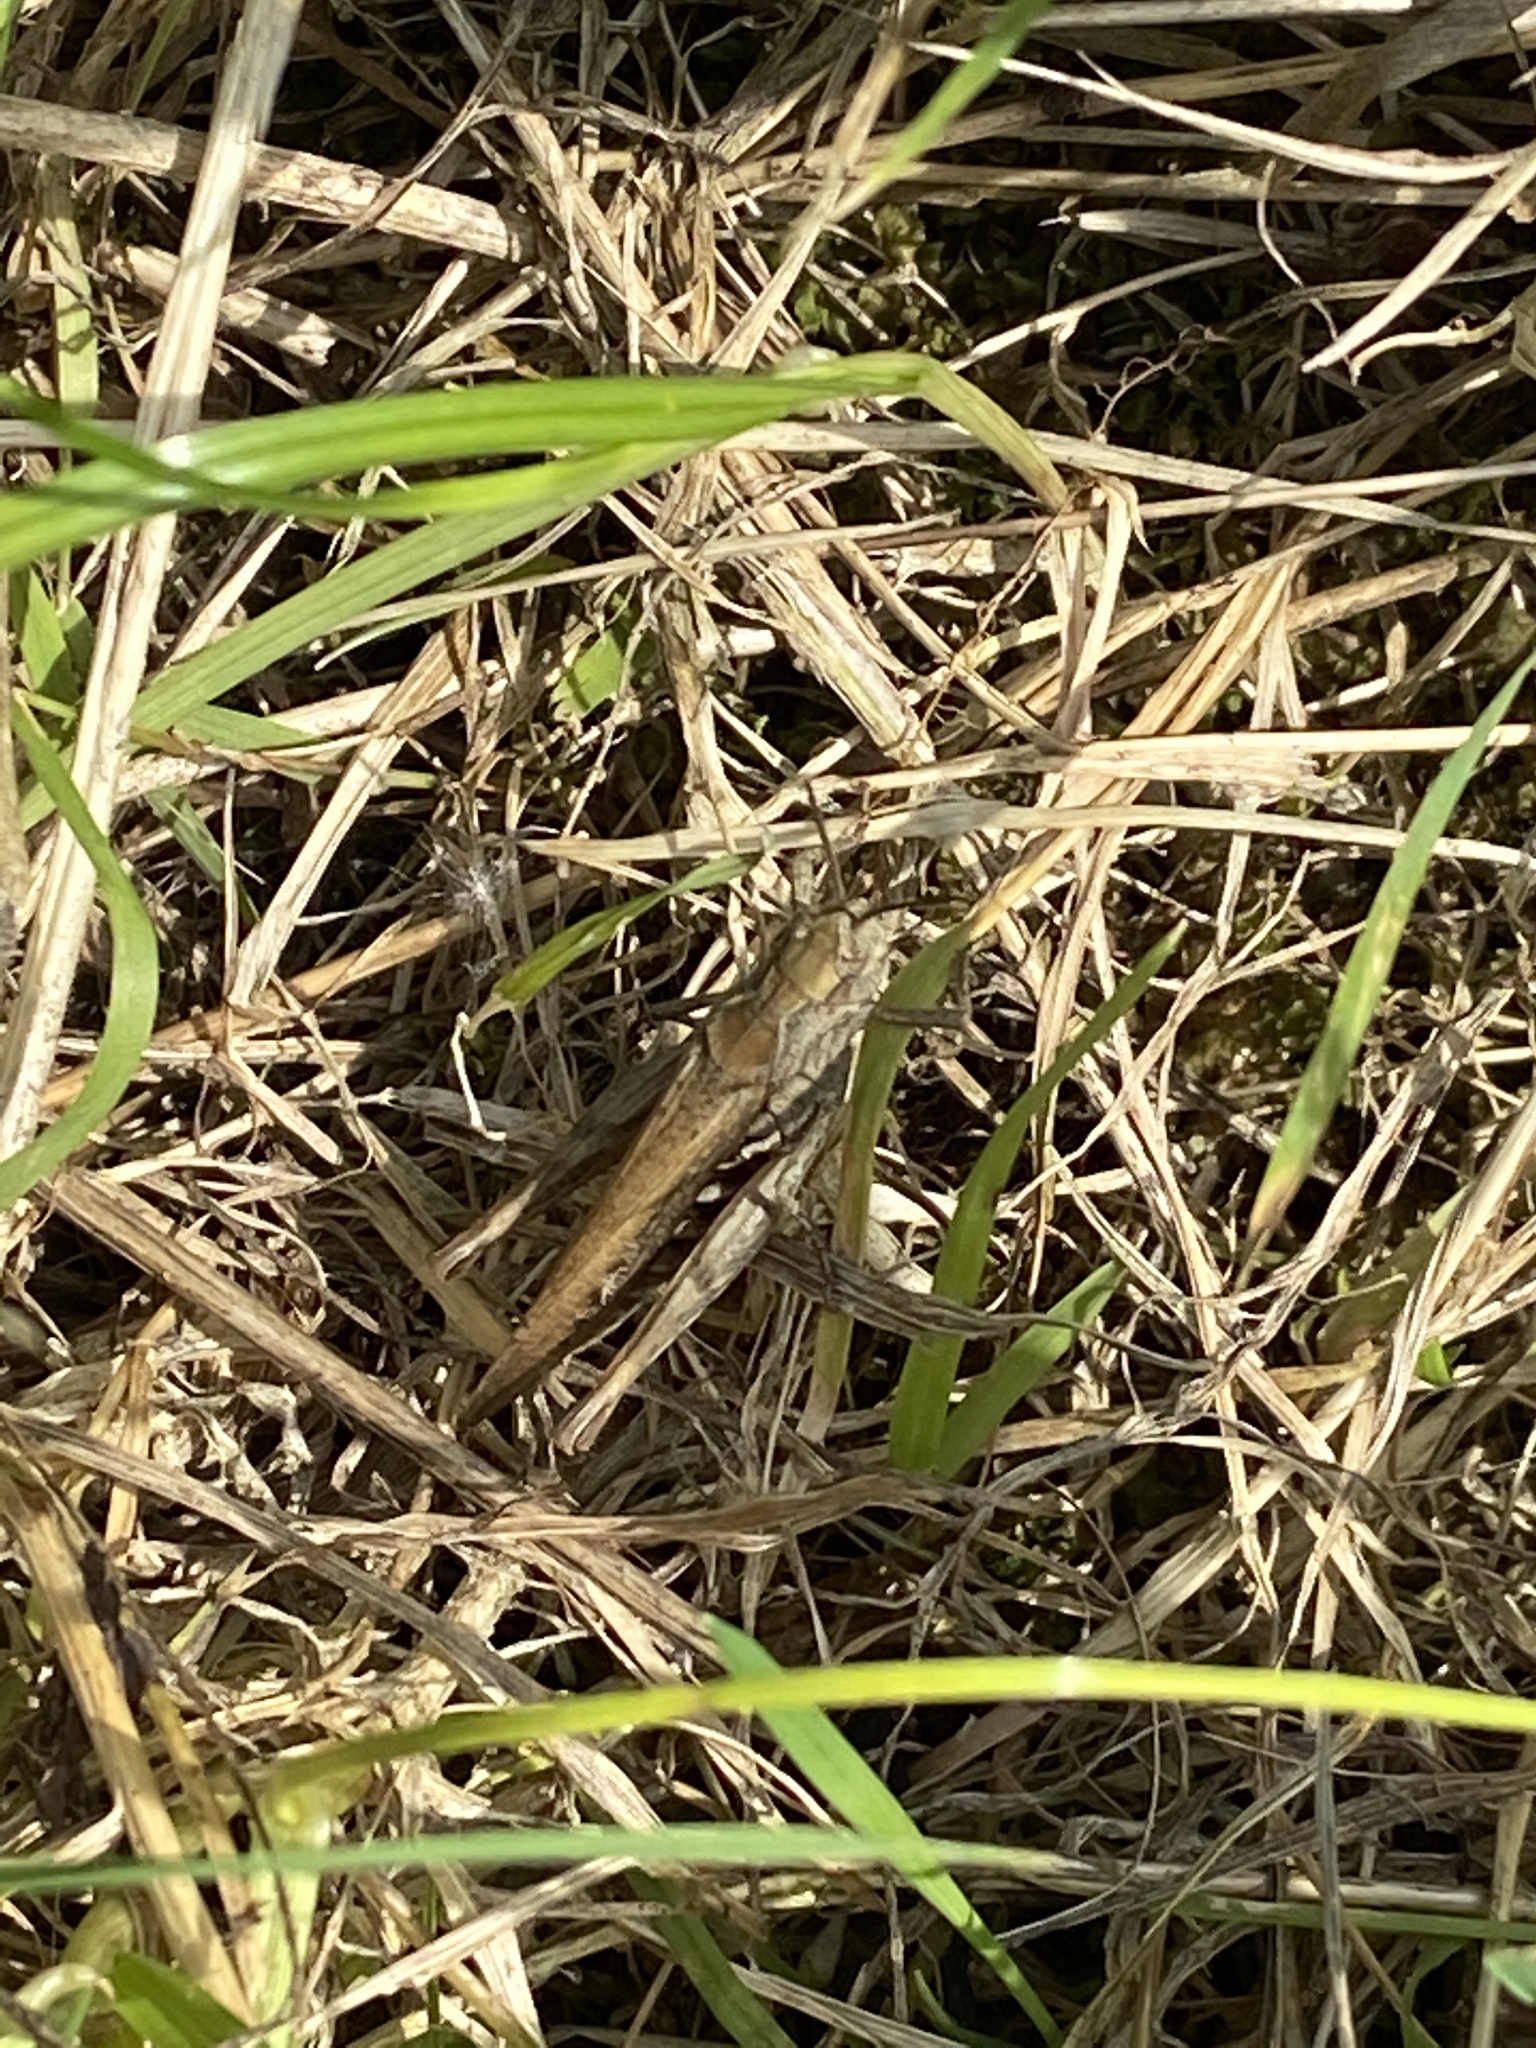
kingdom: Animalia
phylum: Arthropoda
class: Insecta
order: Orthoptera
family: Acrididae
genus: Chorthippus
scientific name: Chorthippus brunneus
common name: Field grasshopper
